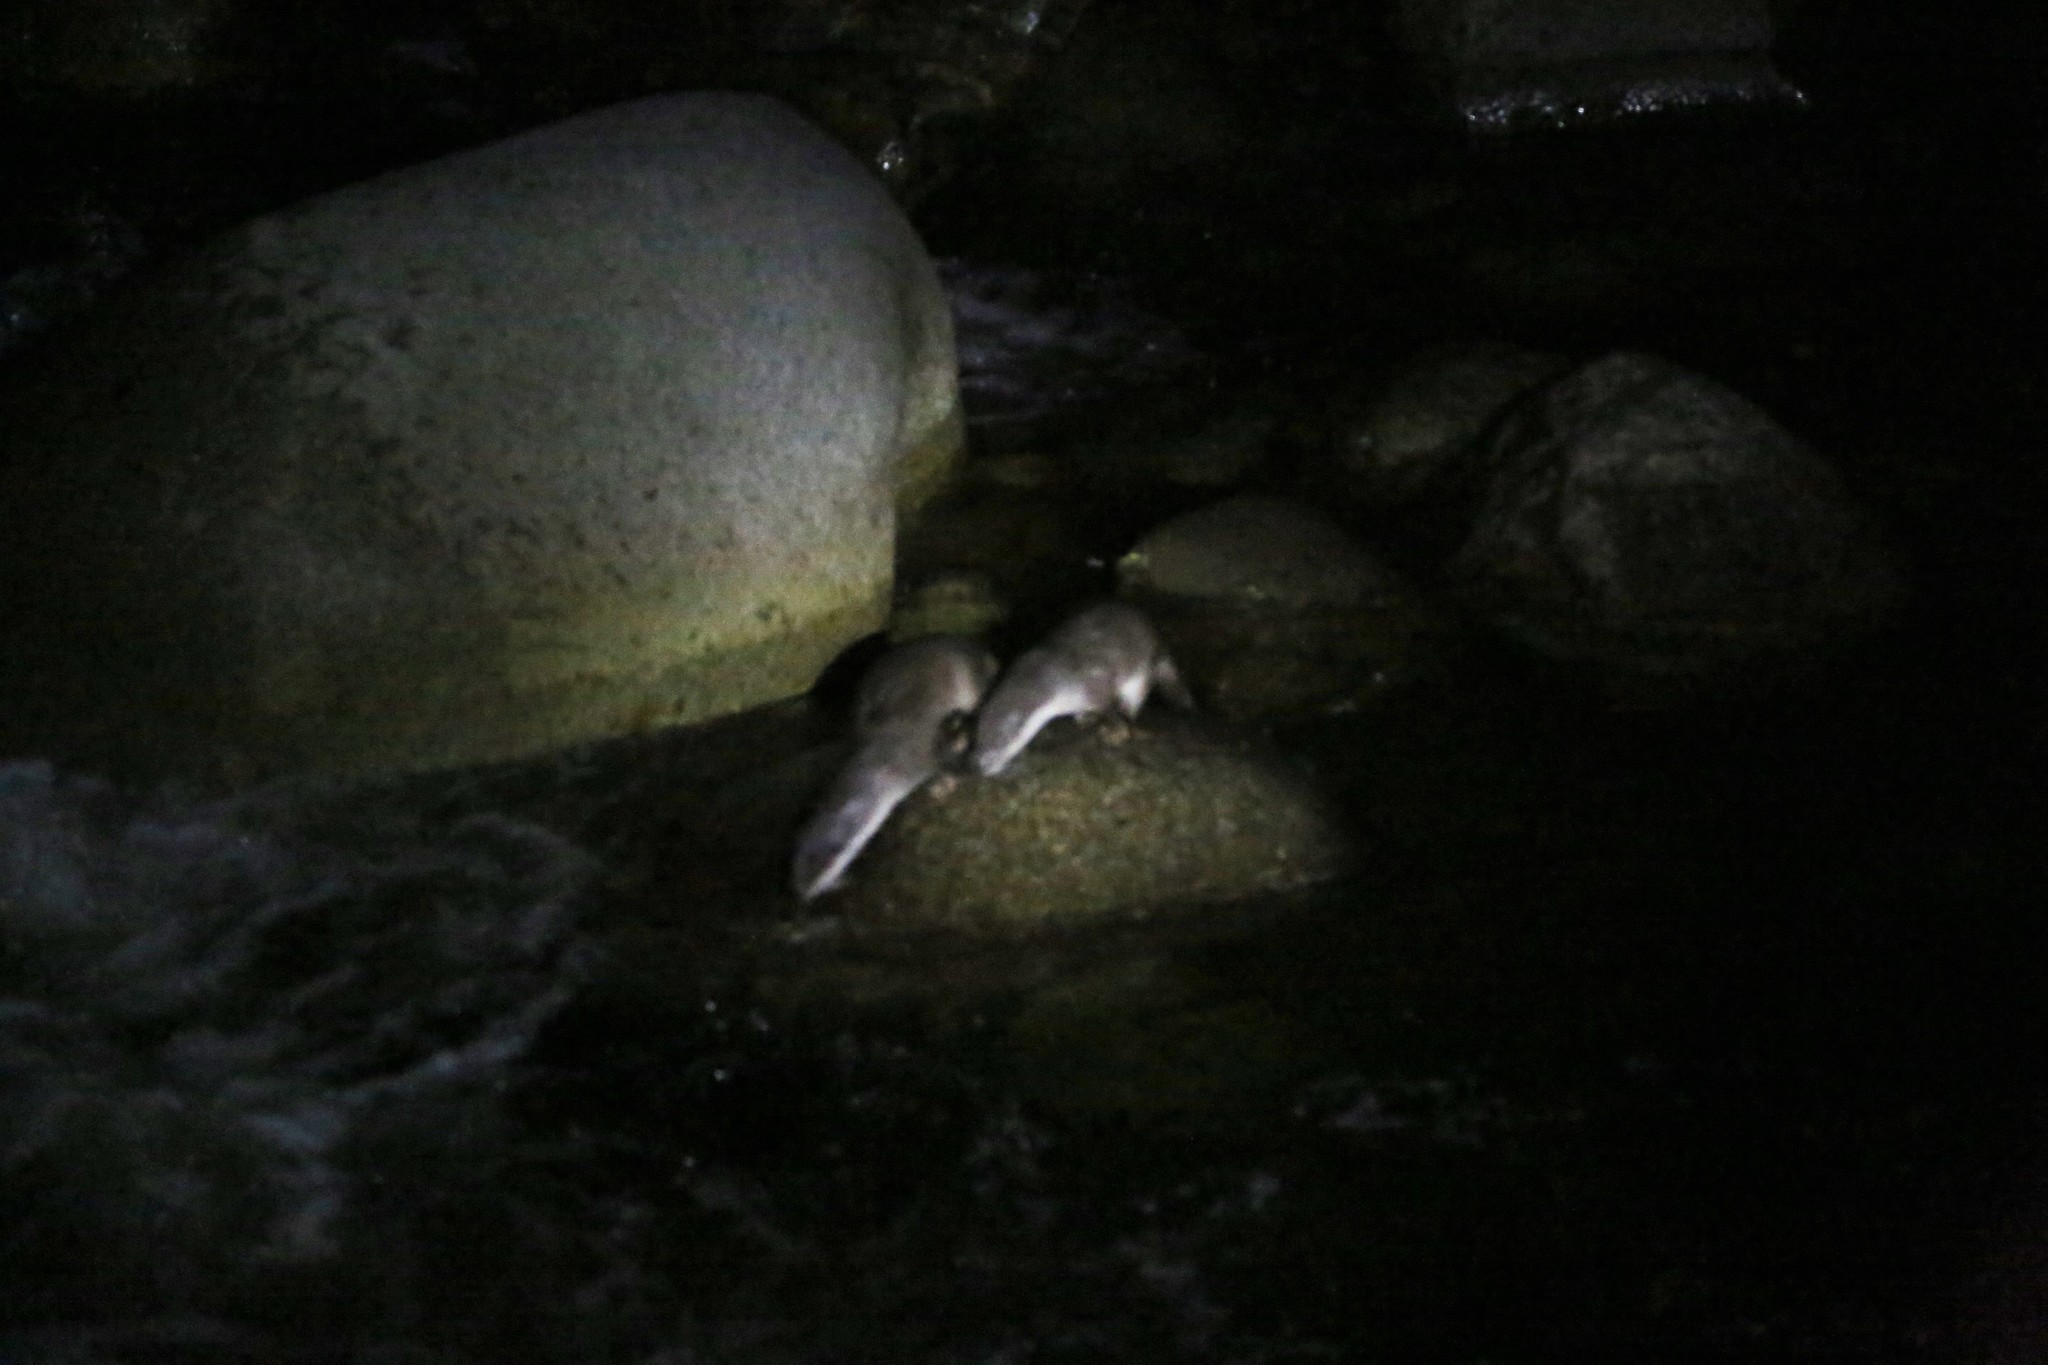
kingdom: Animalia
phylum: Chordata
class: Mammalia
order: Carnivora
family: Mustelidae
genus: Lutra
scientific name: Lutra lutra
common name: European otter
